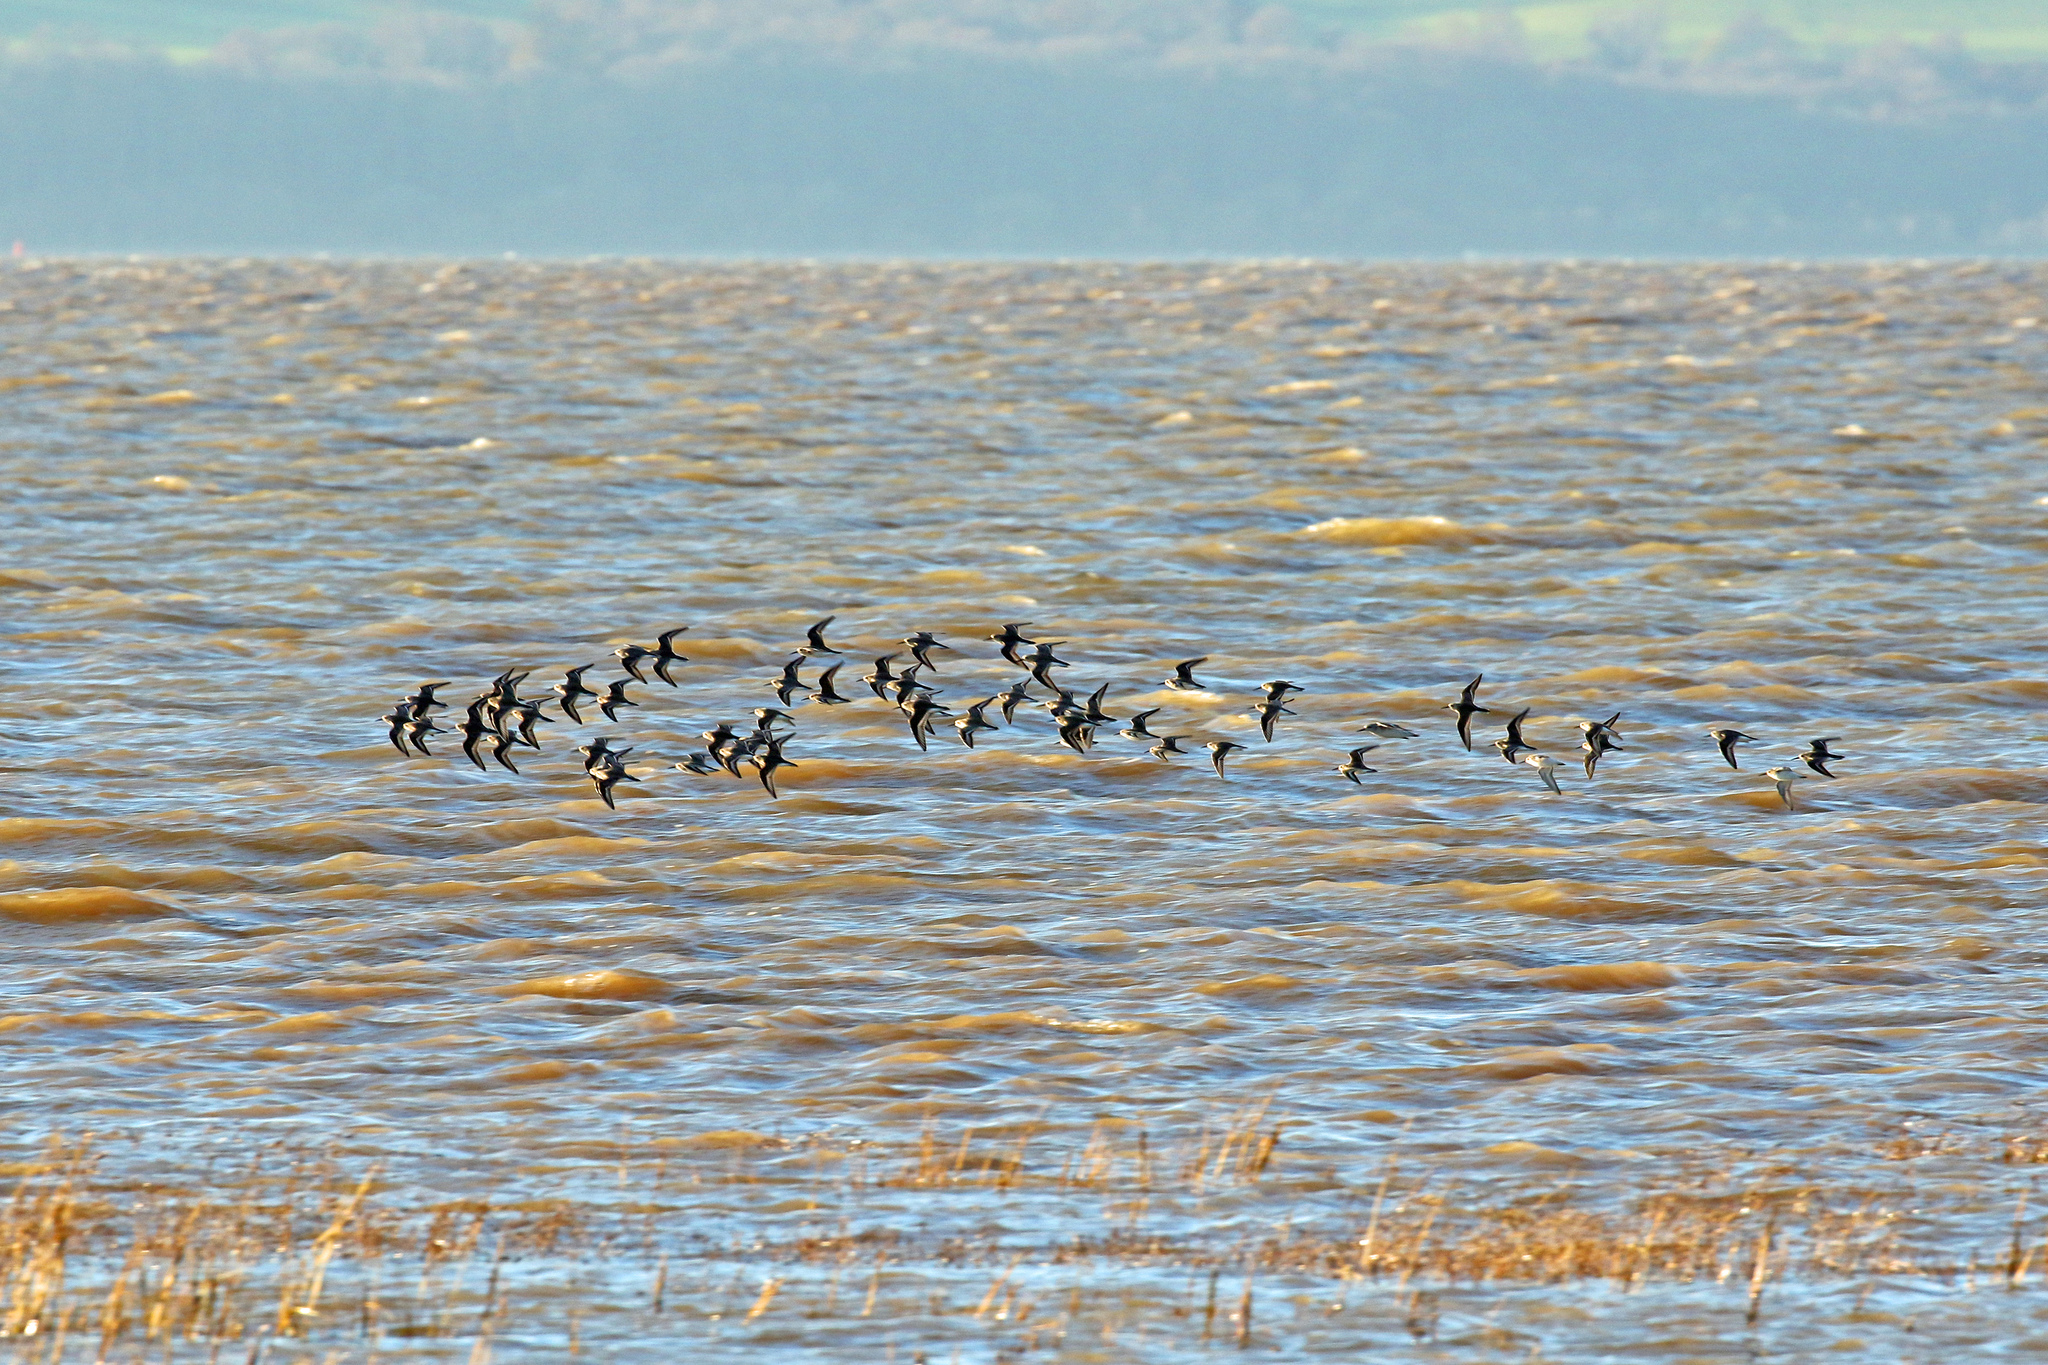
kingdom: Animalia
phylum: Chordata
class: Aves
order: Charadriiformes
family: Scolopacidae
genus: Calidris
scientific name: Calidris alpina
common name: Dunlin
